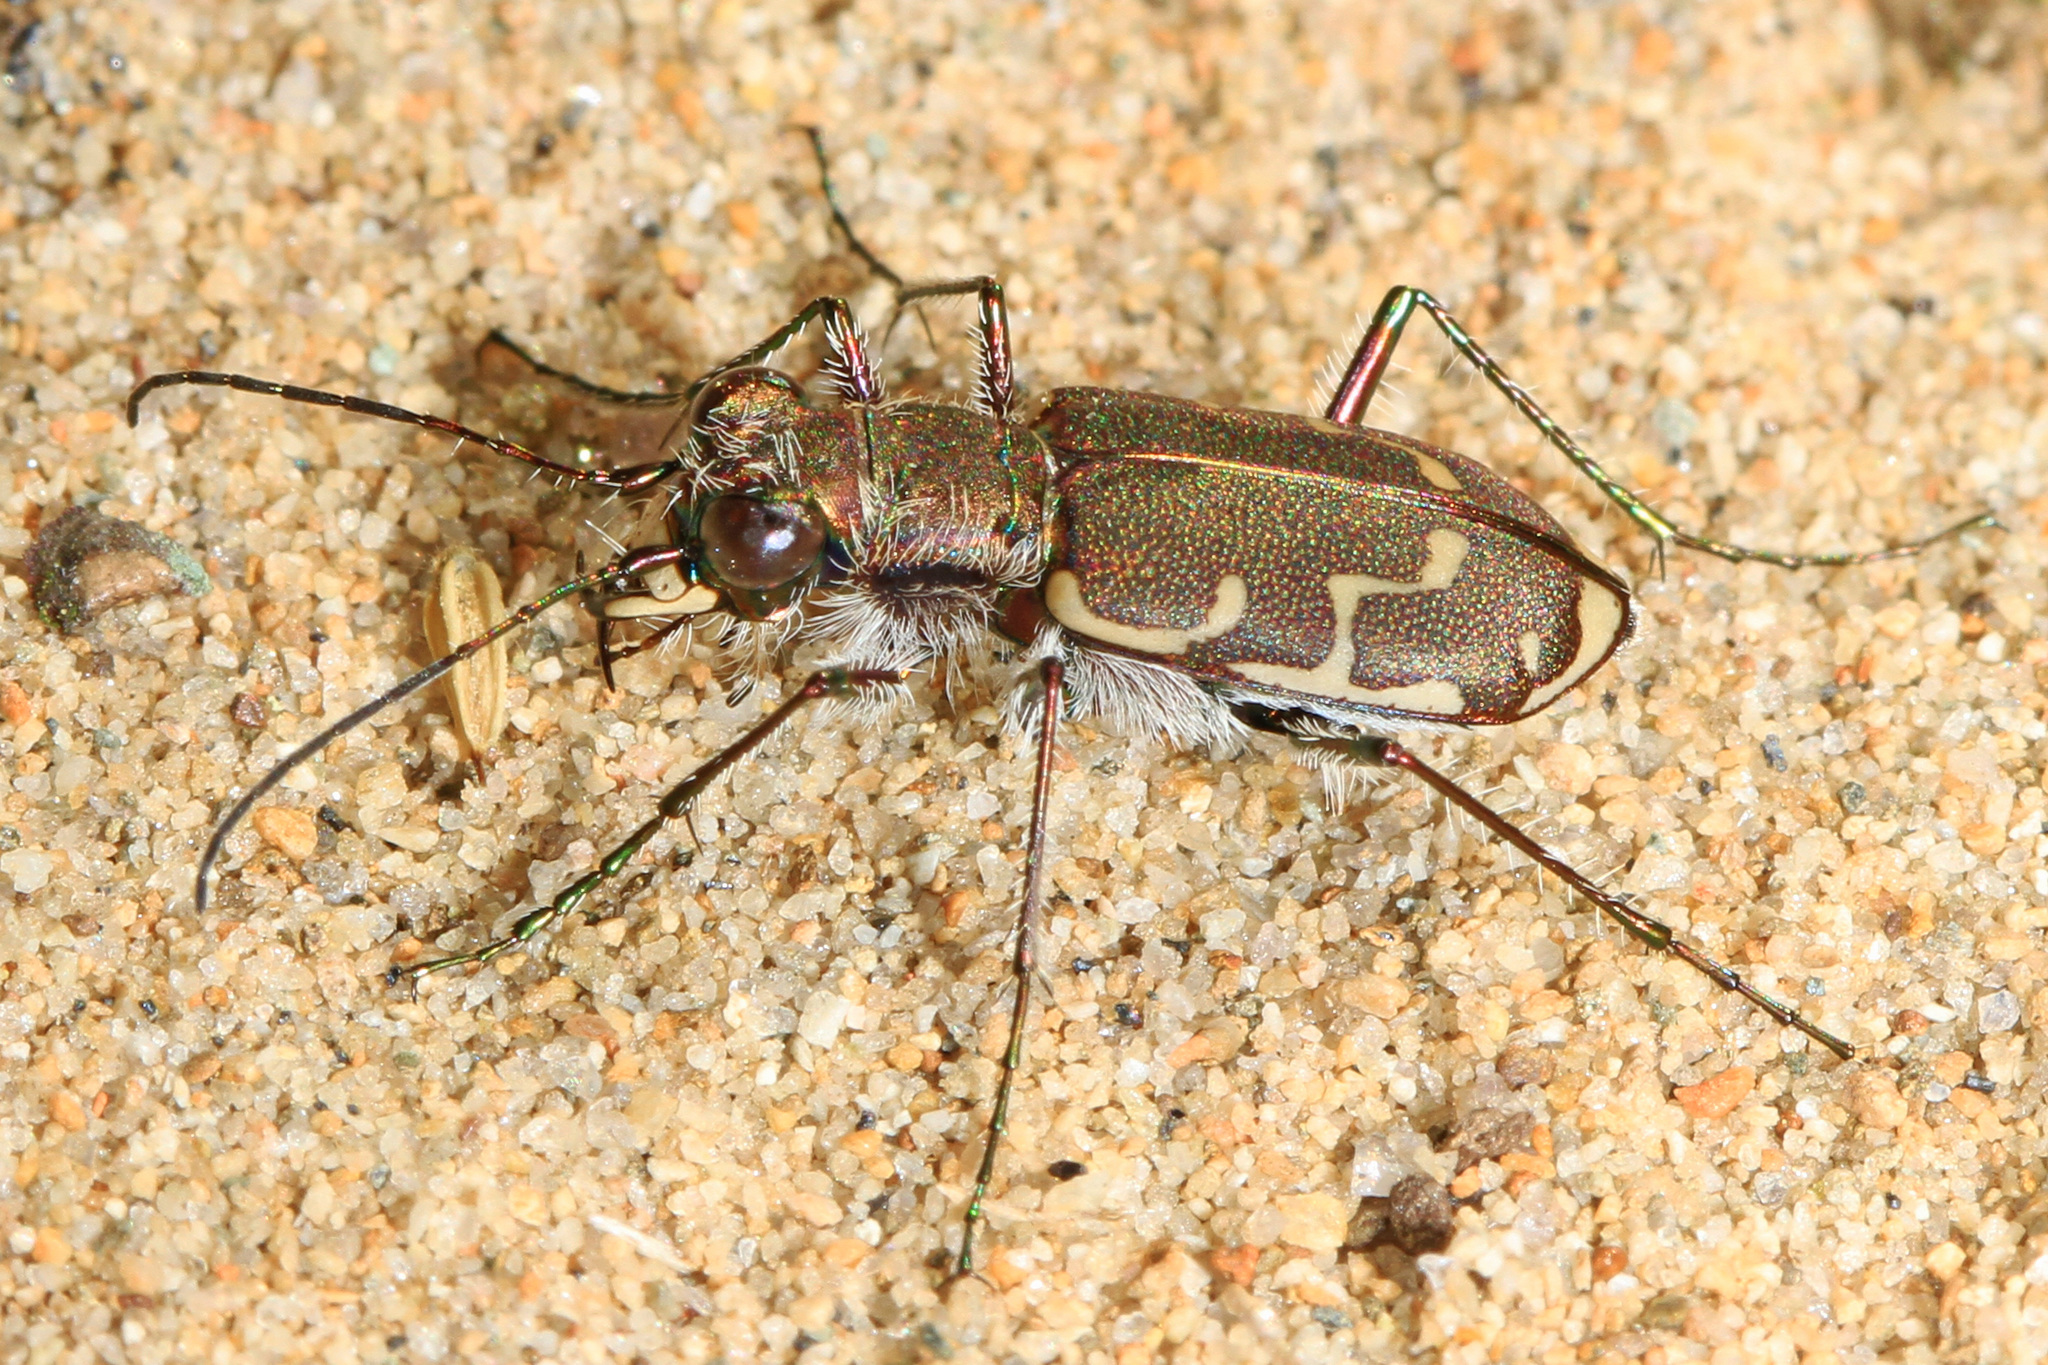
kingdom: Animalia
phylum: Arthropoda
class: Insecta
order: Coleoptera
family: Carabidae
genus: Cicindela
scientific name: Cicindela repanda
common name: Bronzed tiger beetle
